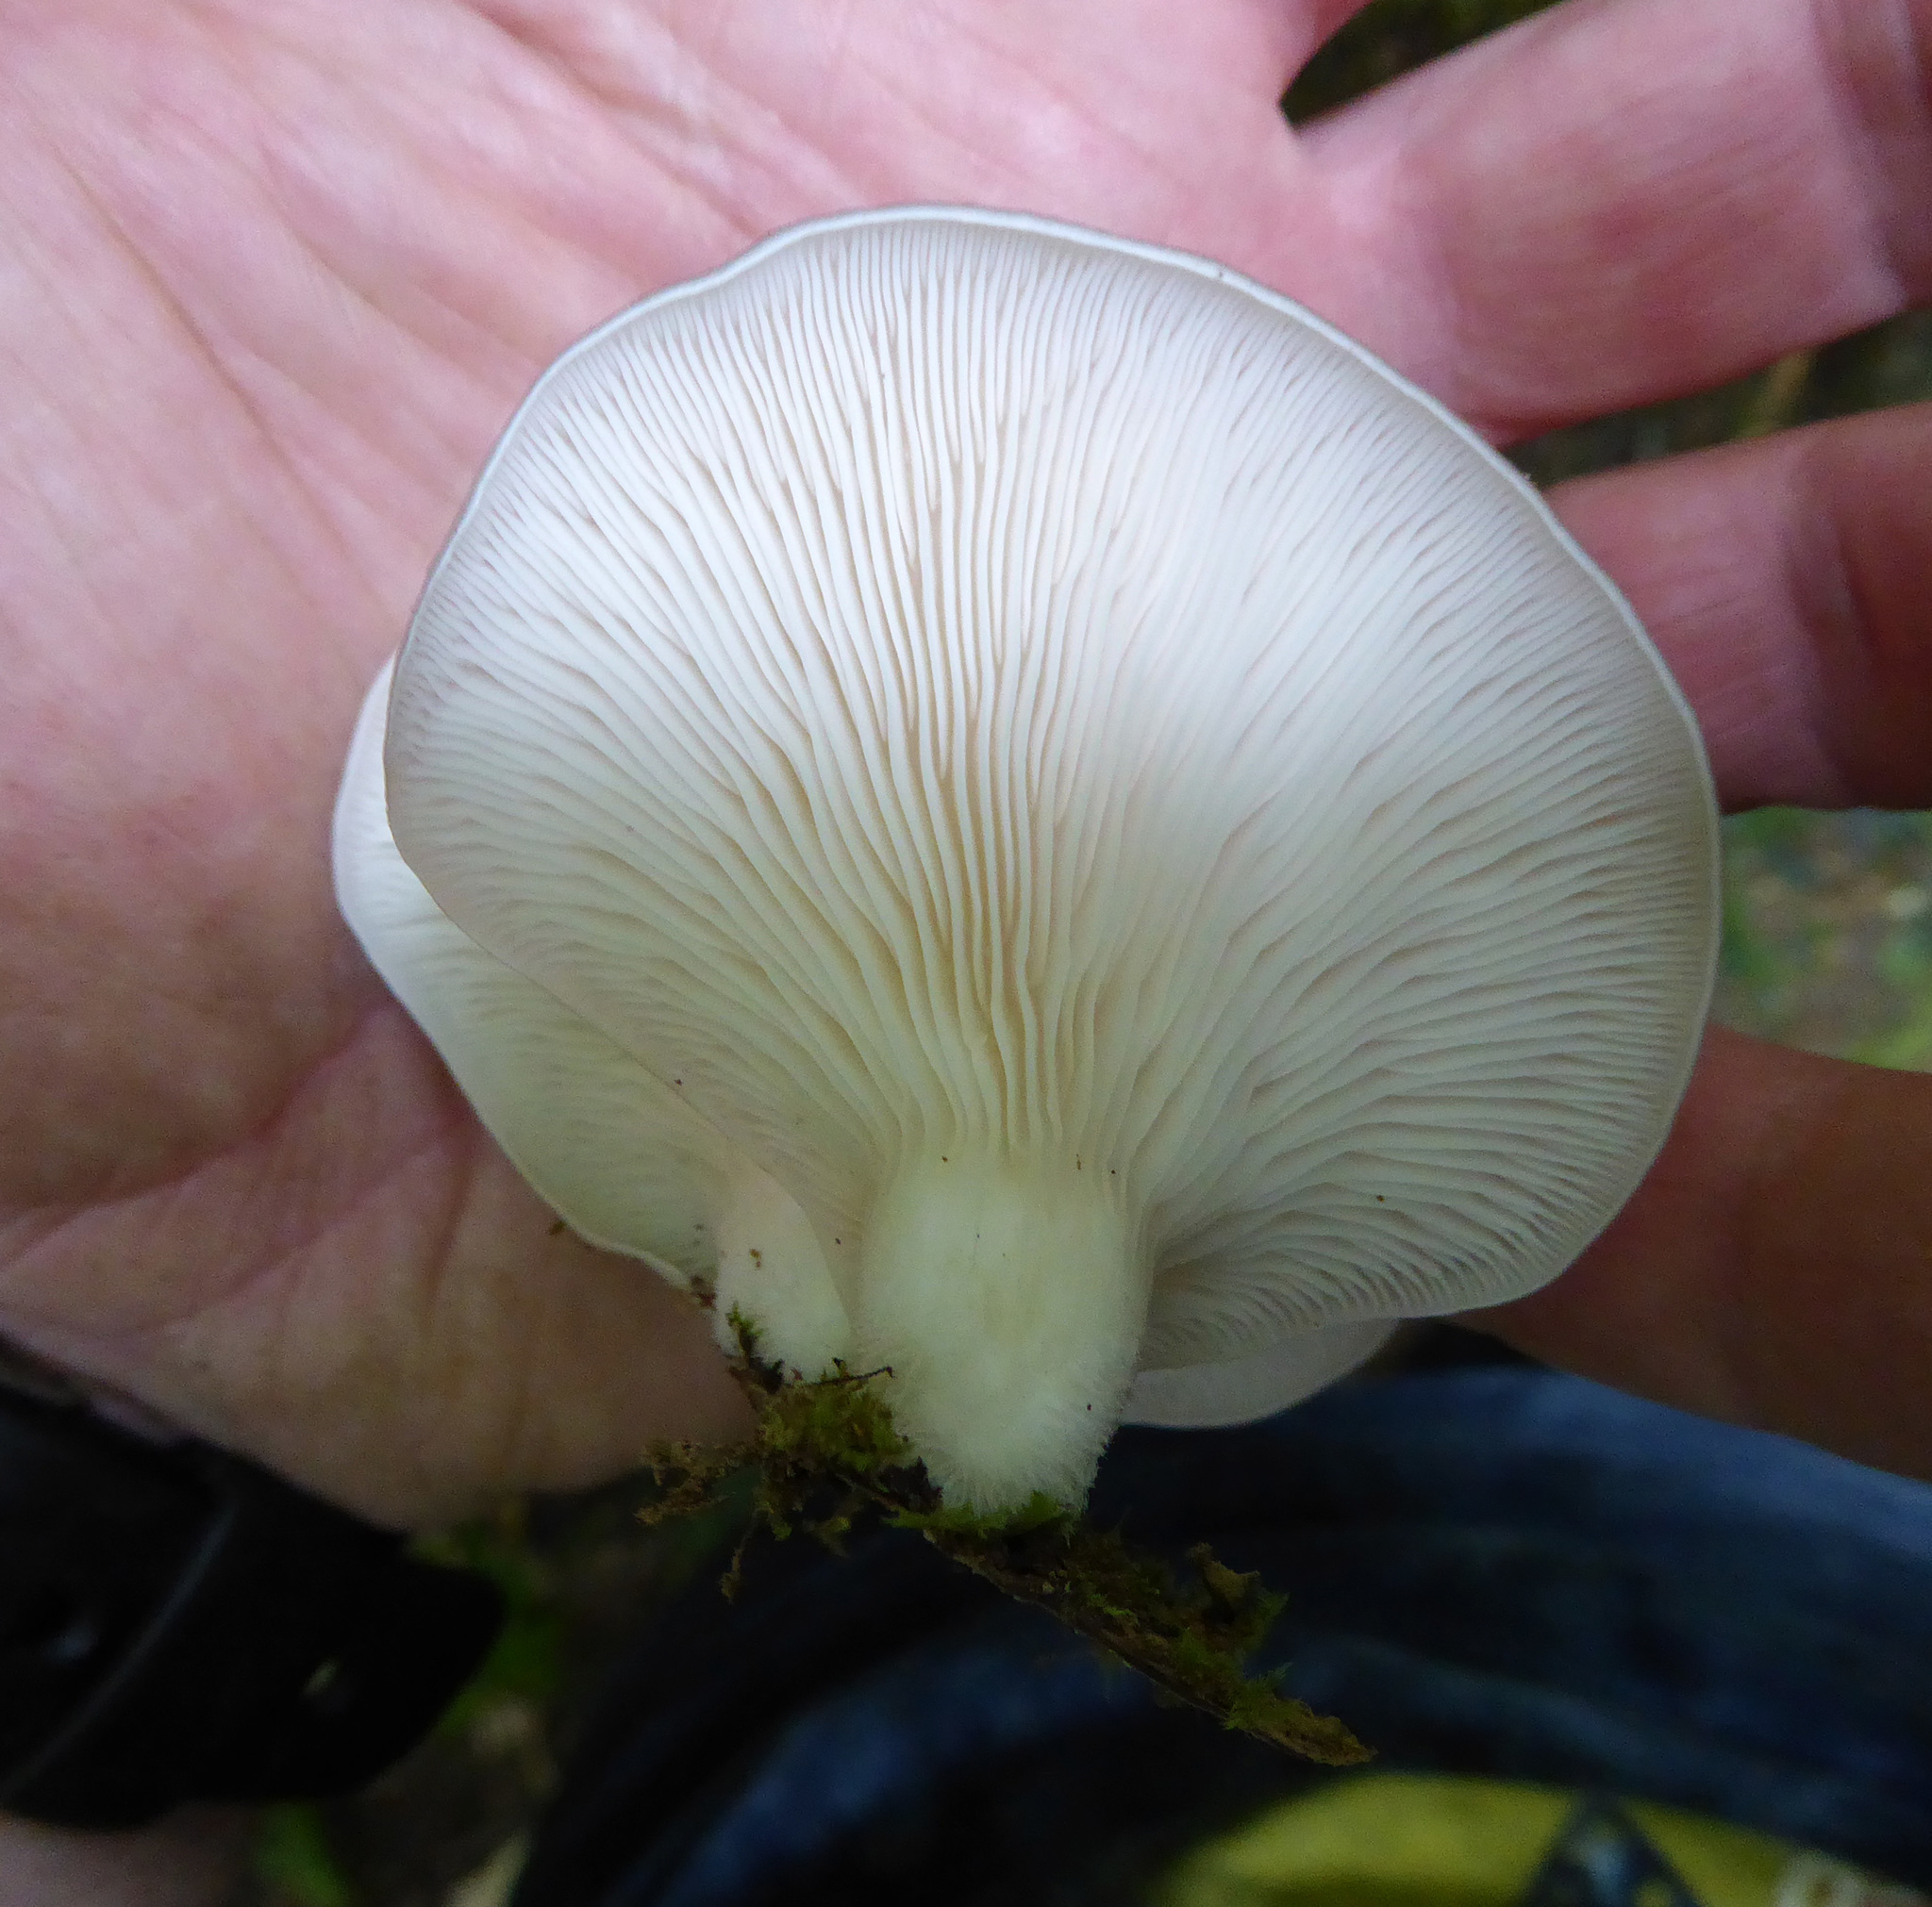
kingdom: Fungi
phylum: Basidiomycota
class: Agaricomycetes
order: Agaricales
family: Pleurotaceae
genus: Pleurotus
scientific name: Pleurotus parsonsiae
